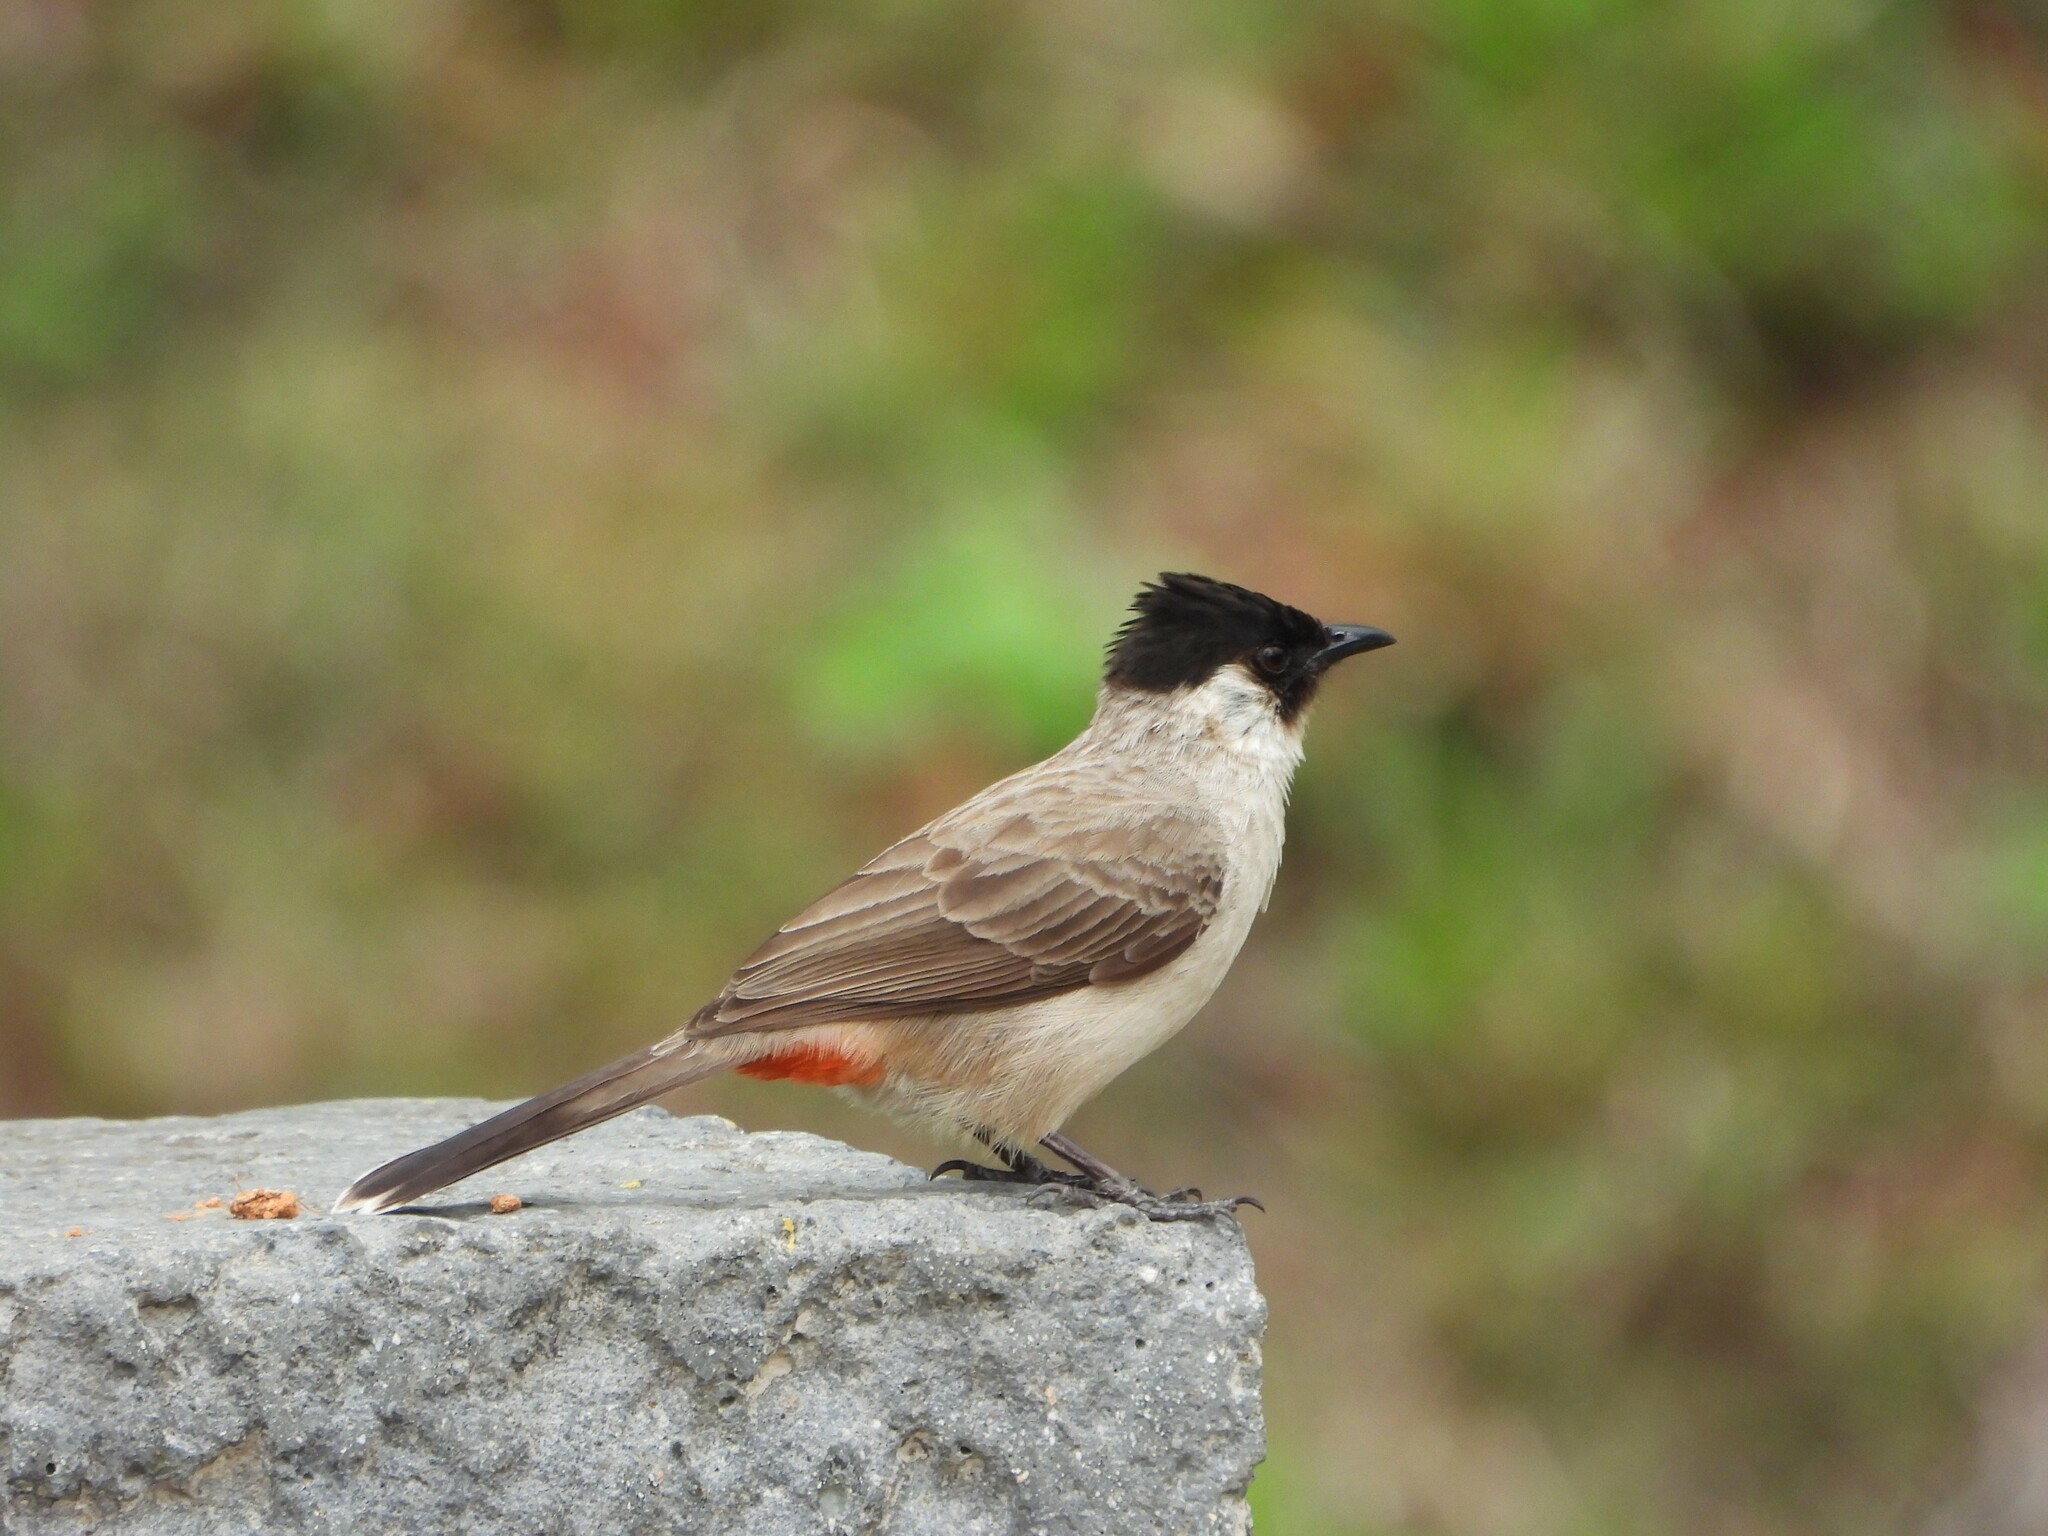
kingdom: Animalia
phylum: Chordata
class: Aves
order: Passeriformes
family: Pycnonotidae
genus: Pycnonotus
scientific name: Pycnonotus aurigaster
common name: Sooty-headed bulbul
